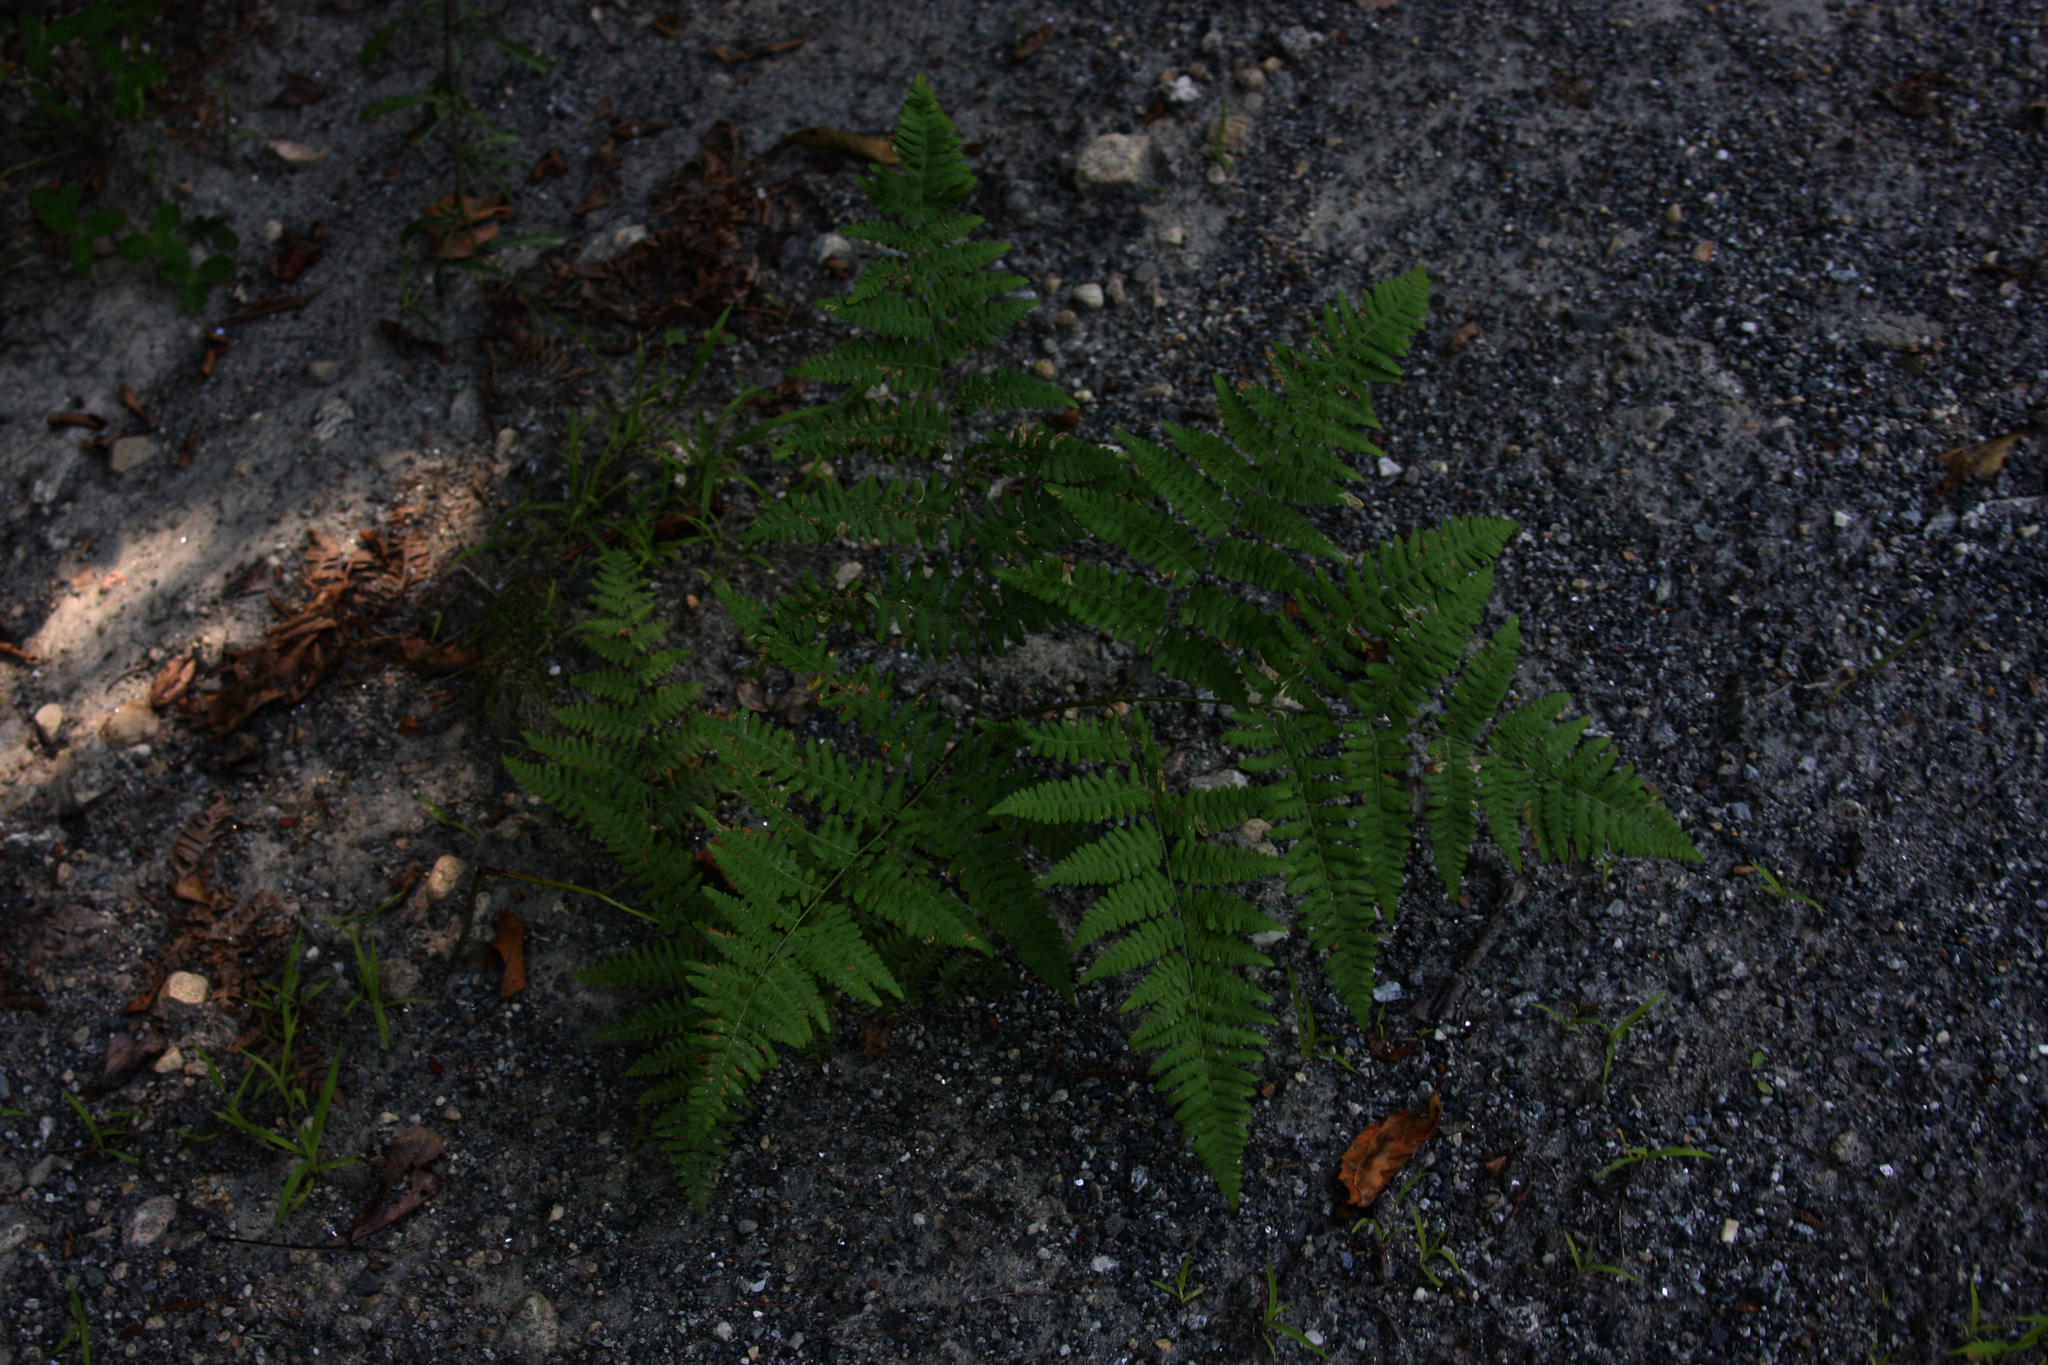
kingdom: Plantae
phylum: Tracheophyta
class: Polypodiopsida
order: Polypodiales
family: Dennstaedtiaceae
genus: Pteridium
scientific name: Pteridium aquilinum
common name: Bracken
